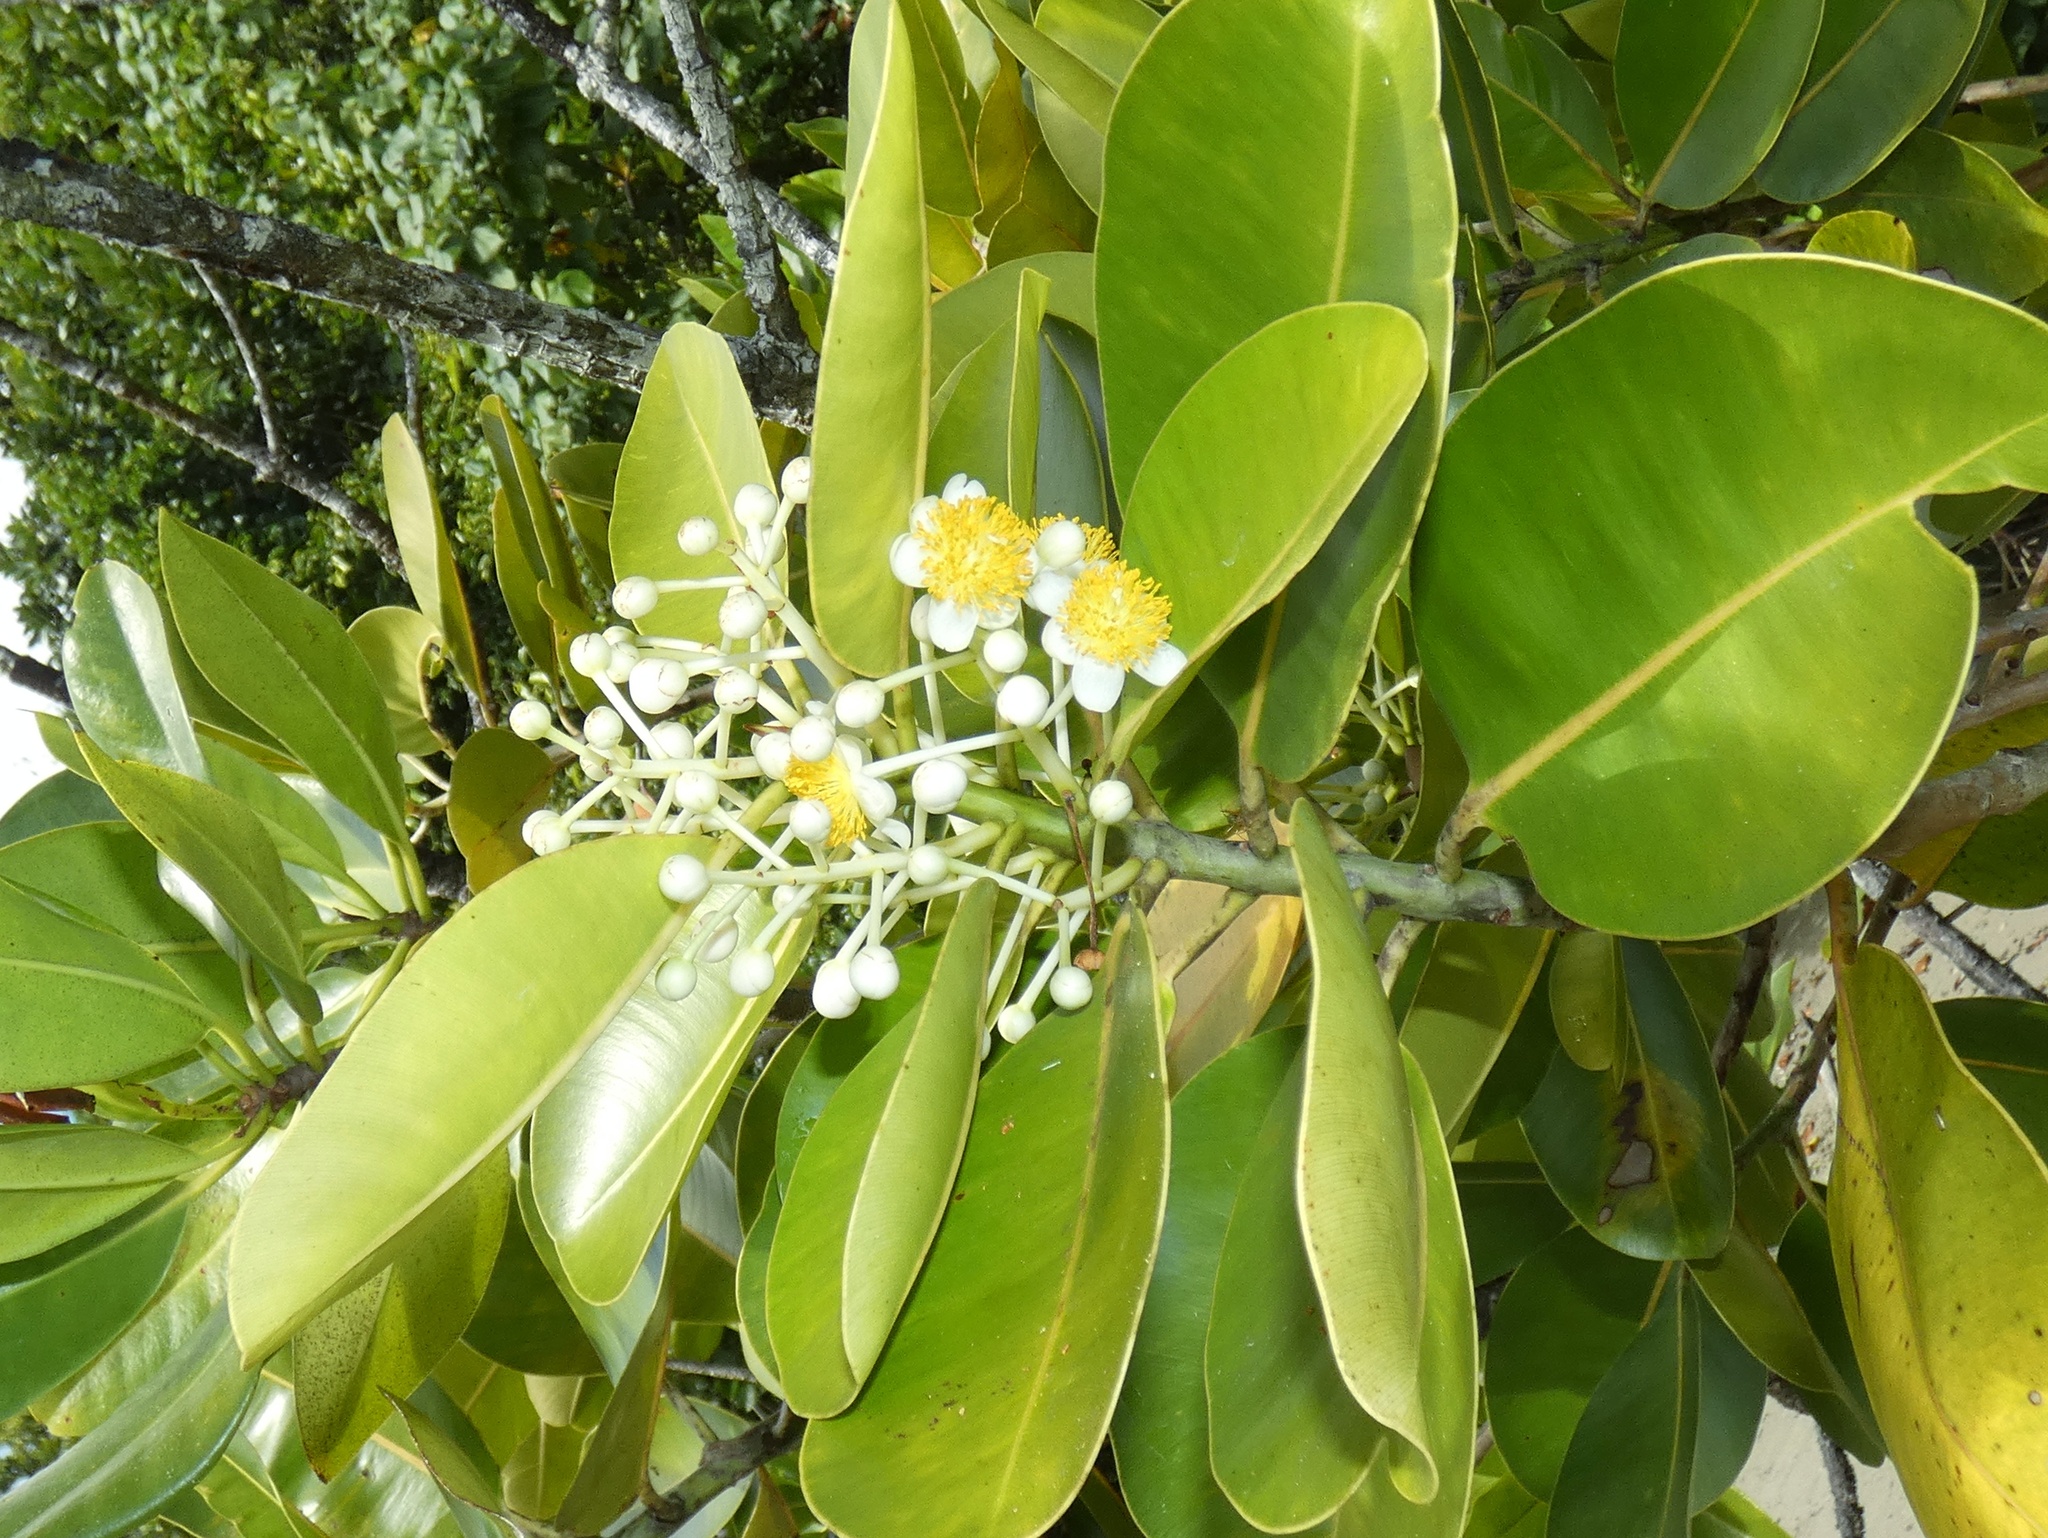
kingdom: Plantae
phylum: Tracheophyta
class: Magnoliopsida
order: Malpighiales
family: Calophyllaceae
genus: Calophyllum
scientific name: Calophyllum inophyllum
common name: Alexandrian laurel
